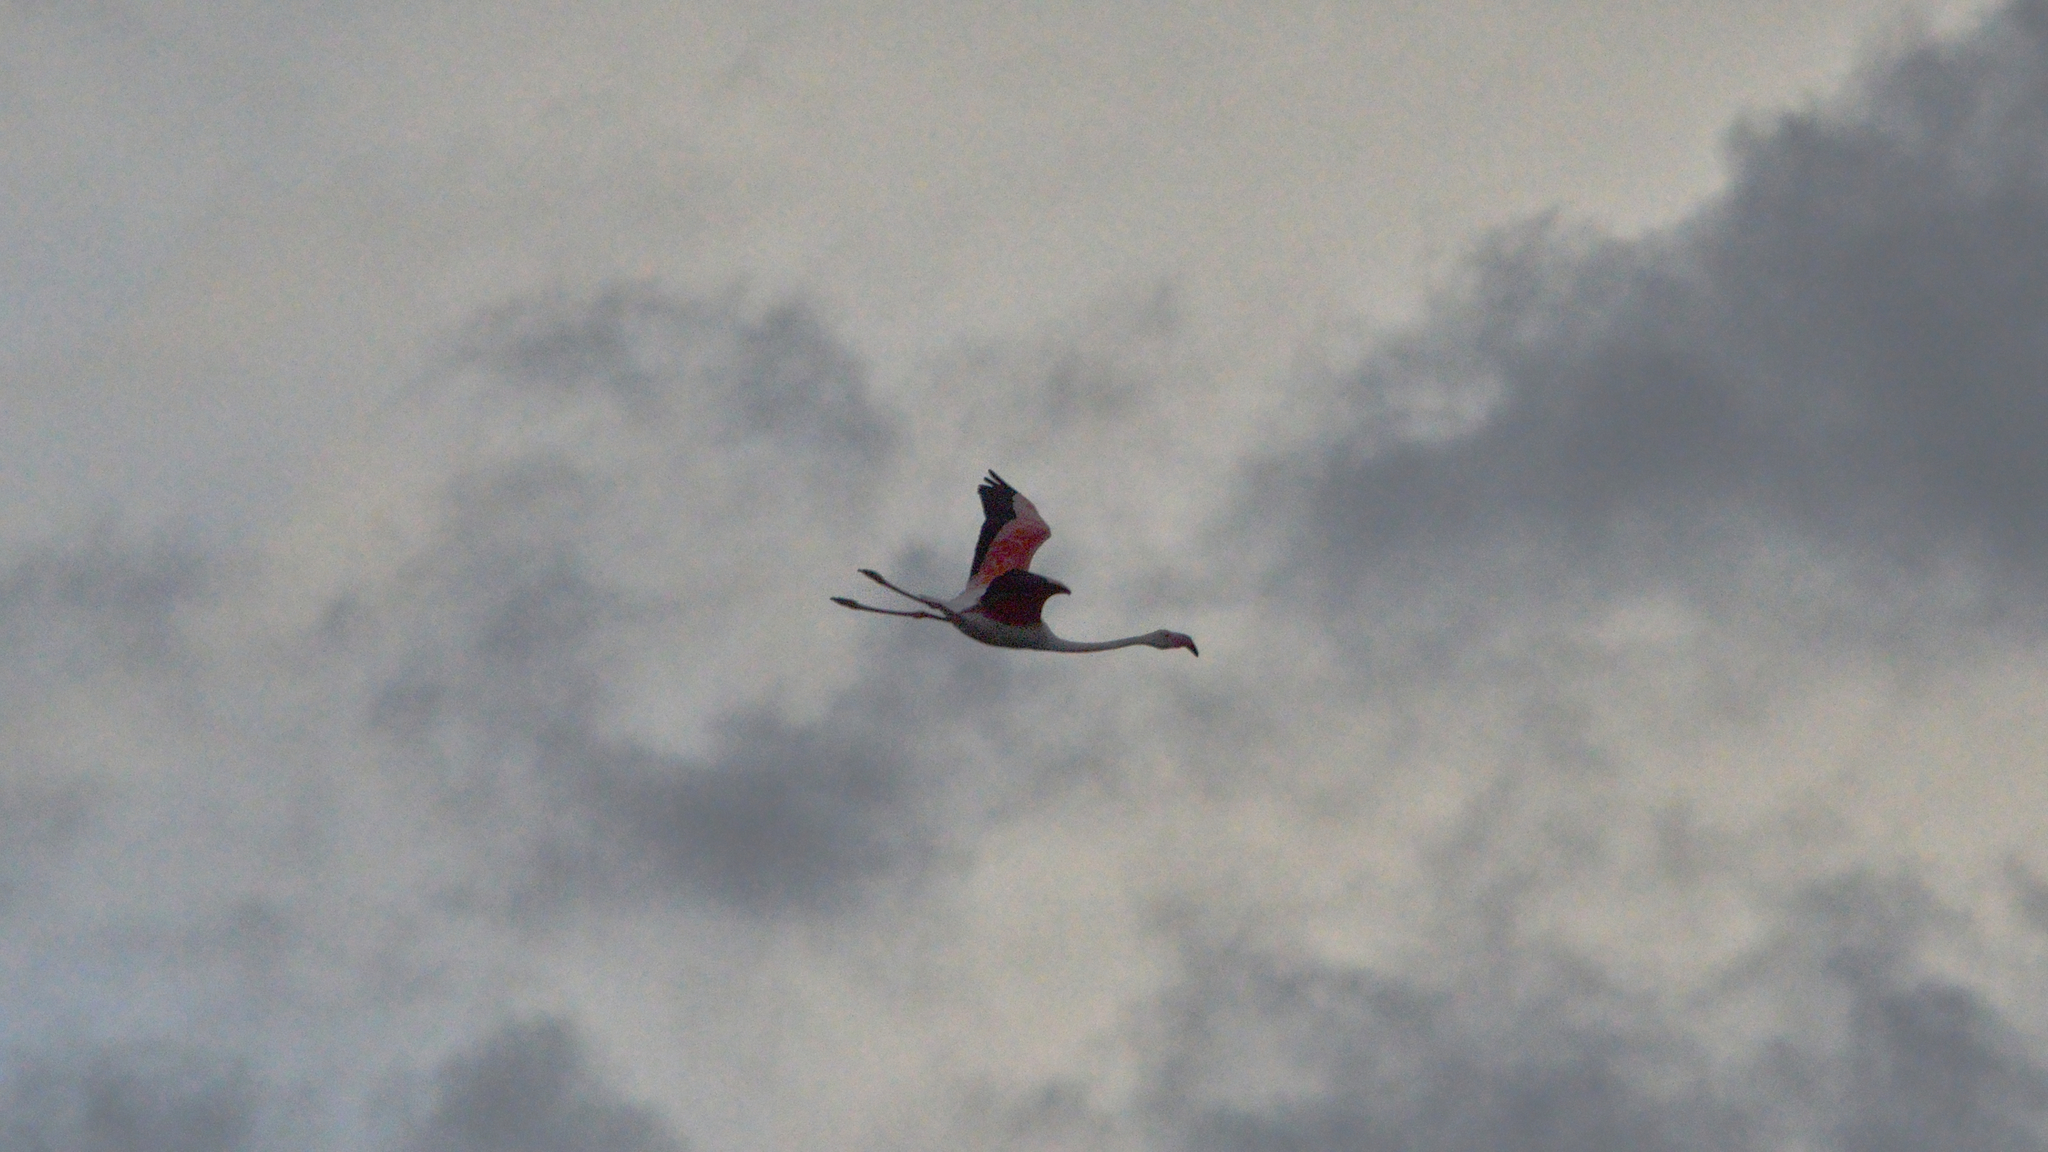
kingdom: Animalia
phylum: Chordata
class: Aves
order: Phoenicopteriformes
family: Phoenicopteridae
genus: Phoenicopterus
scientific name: Phoenicopterus roseus
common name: Greater flamingo
